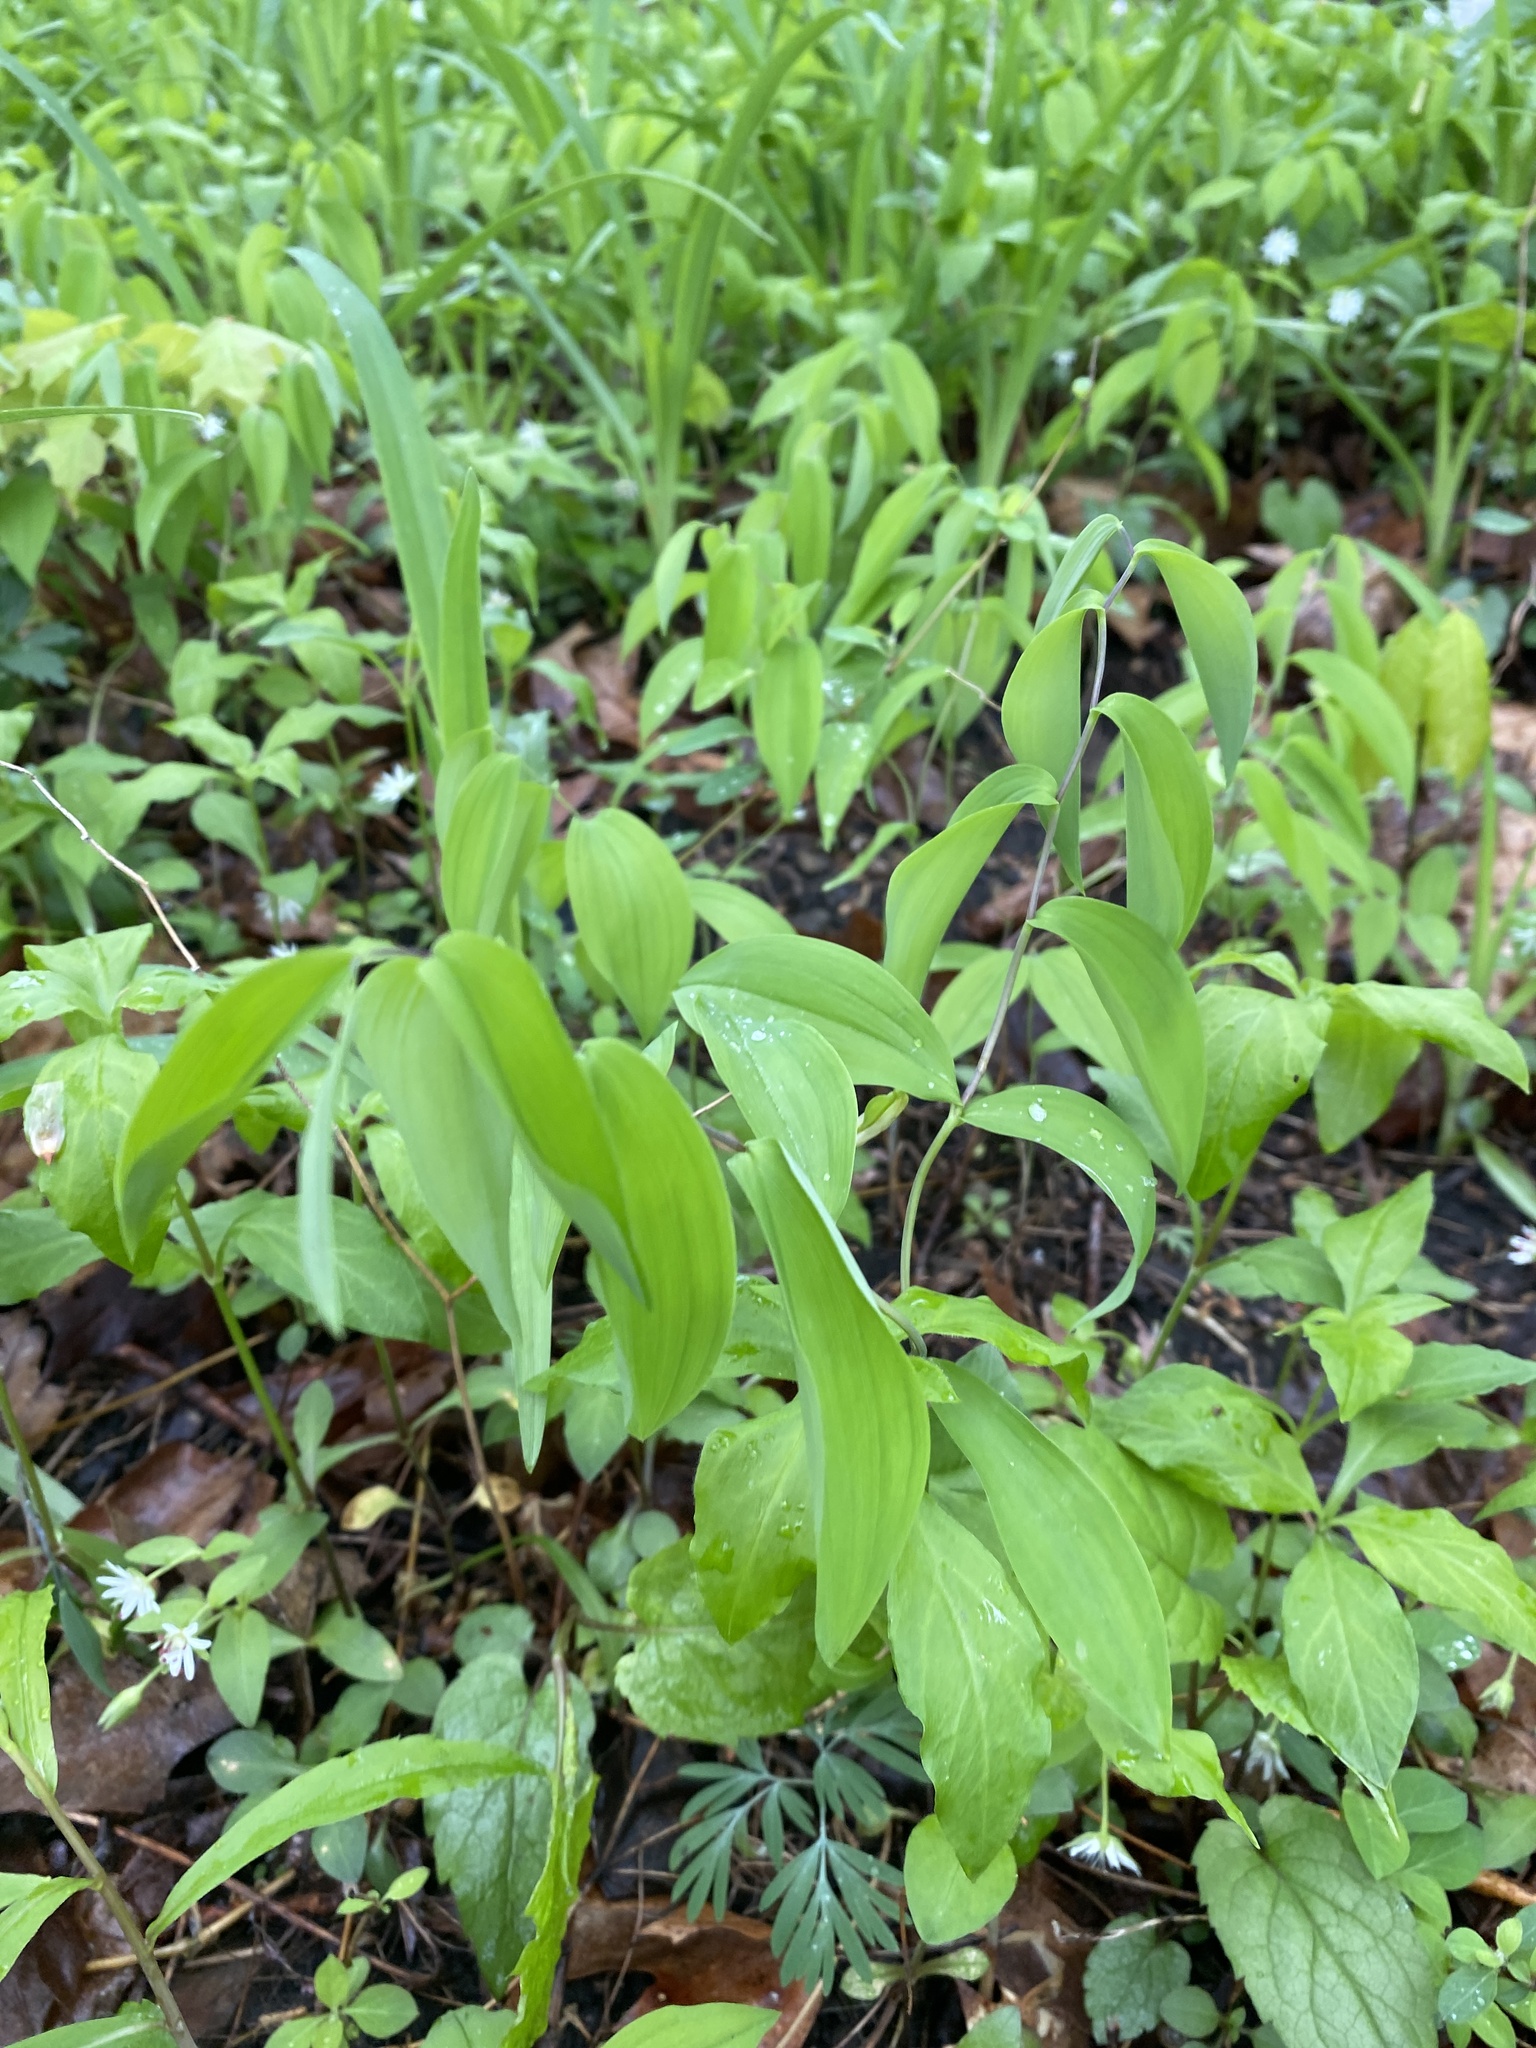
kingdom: Plantae
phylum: Tracheophyta
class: Liliopsida
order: Liliales
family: Colchicaceae
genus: Uvularia
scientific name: Uvularia sessilifolia
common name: Straw-lily
